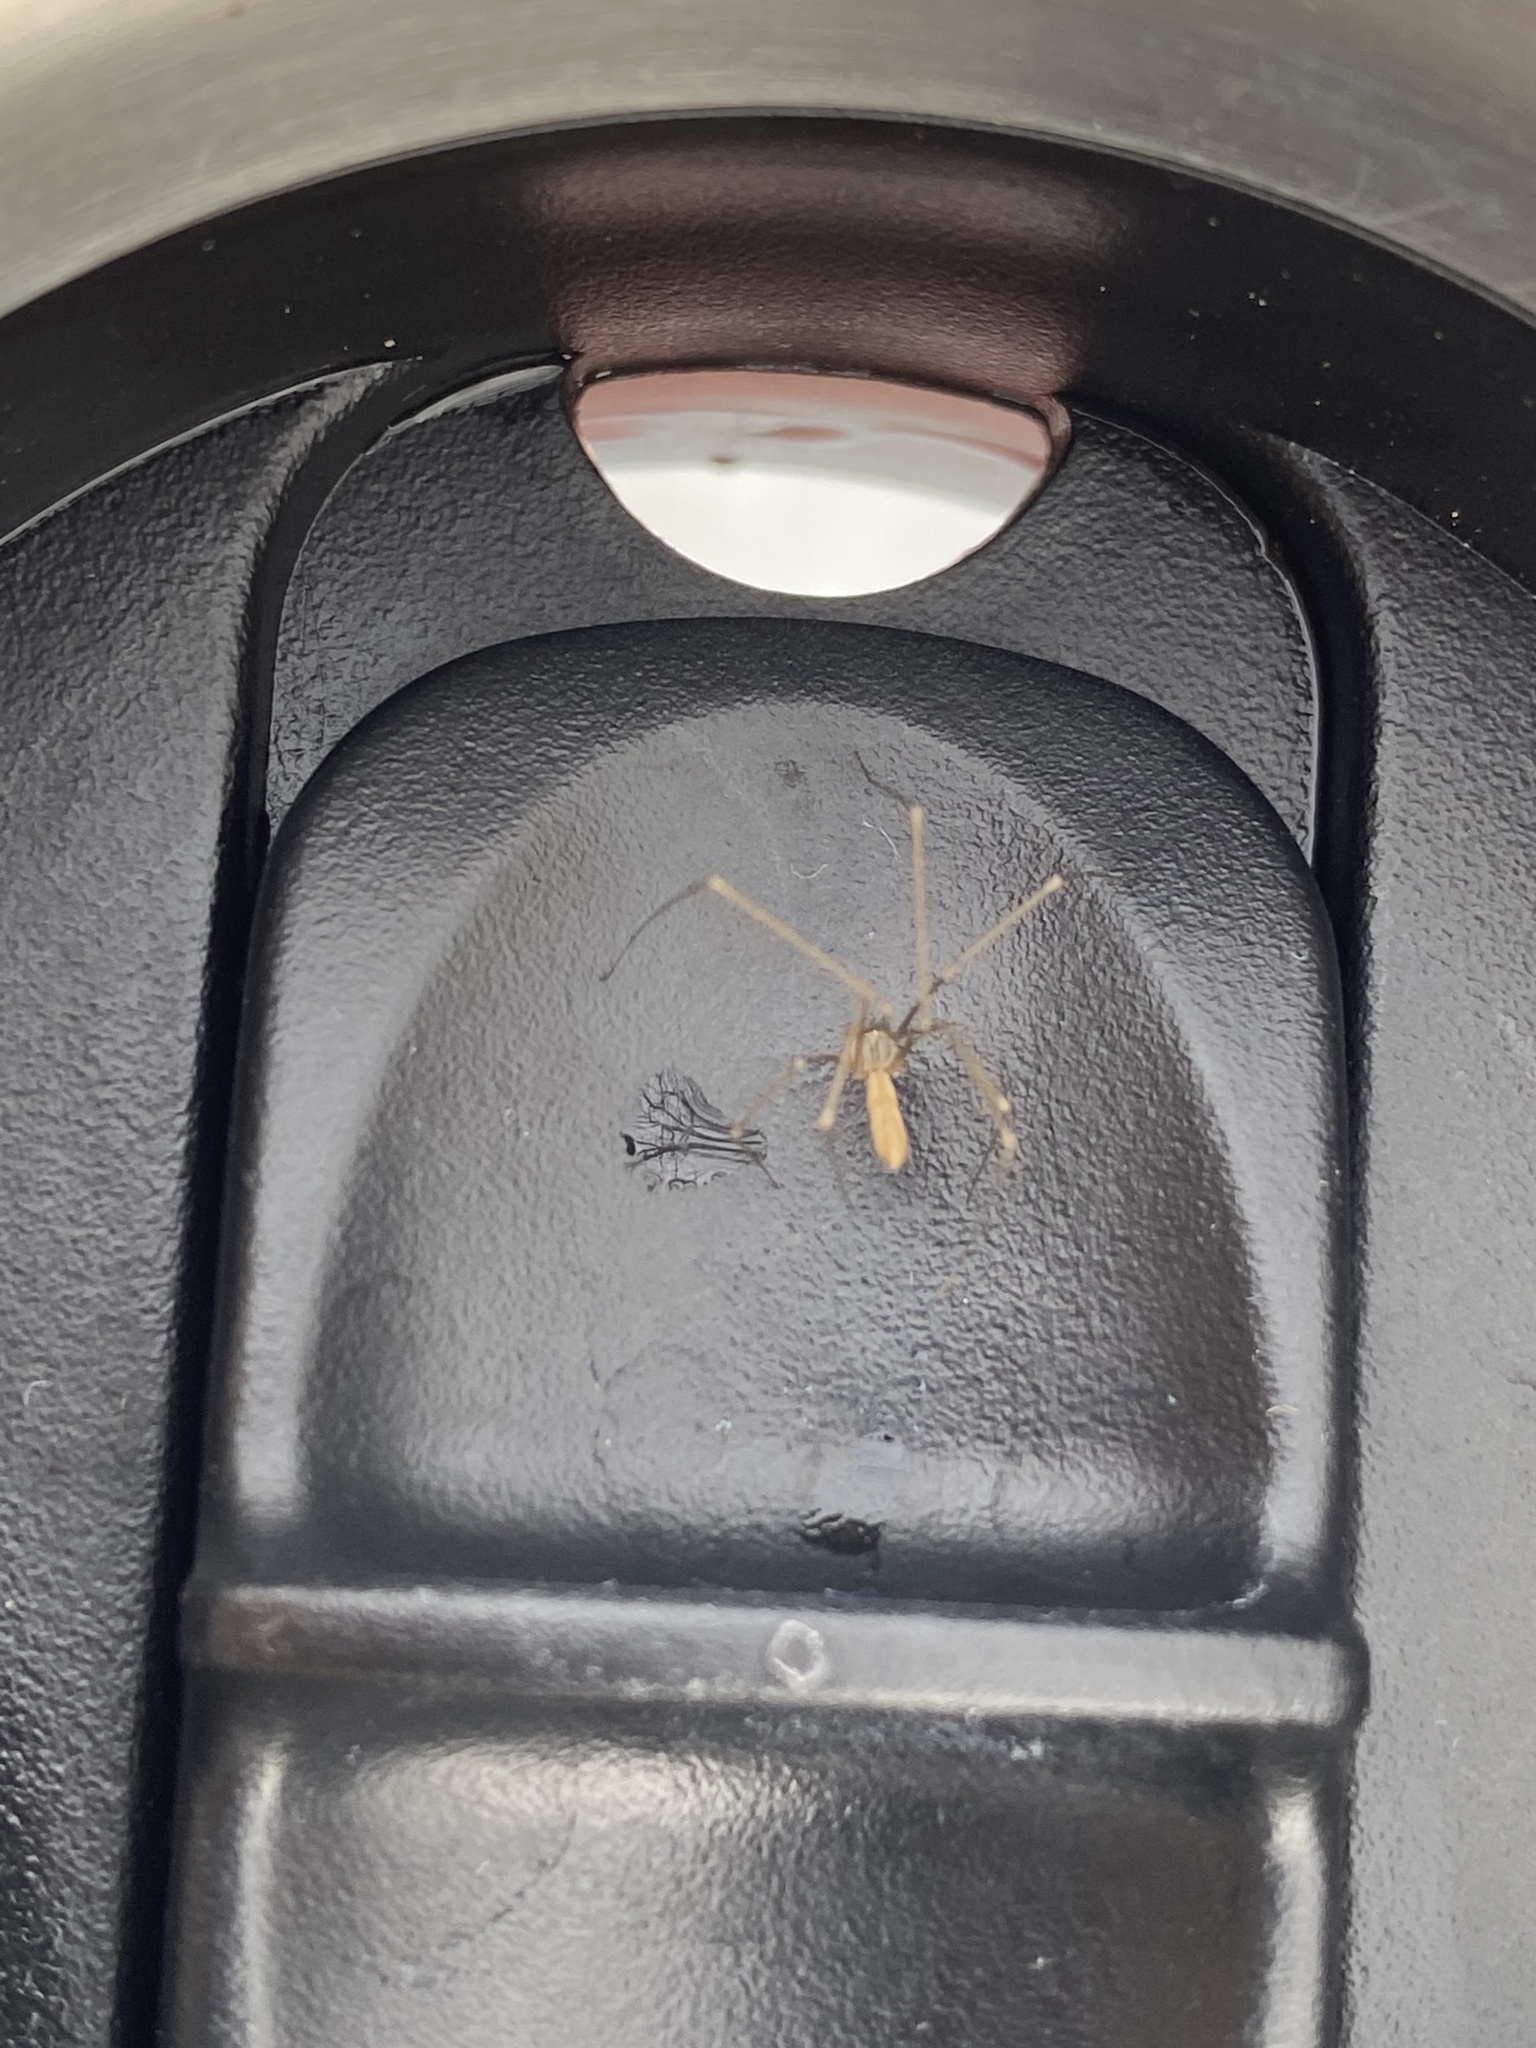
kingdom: Animalia
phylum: Arthropoda
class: Arachnida
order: Araneae
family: Pholcidae
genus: Pholcus
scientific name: Pholcus opilionoides
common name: Daddylongleg spider
